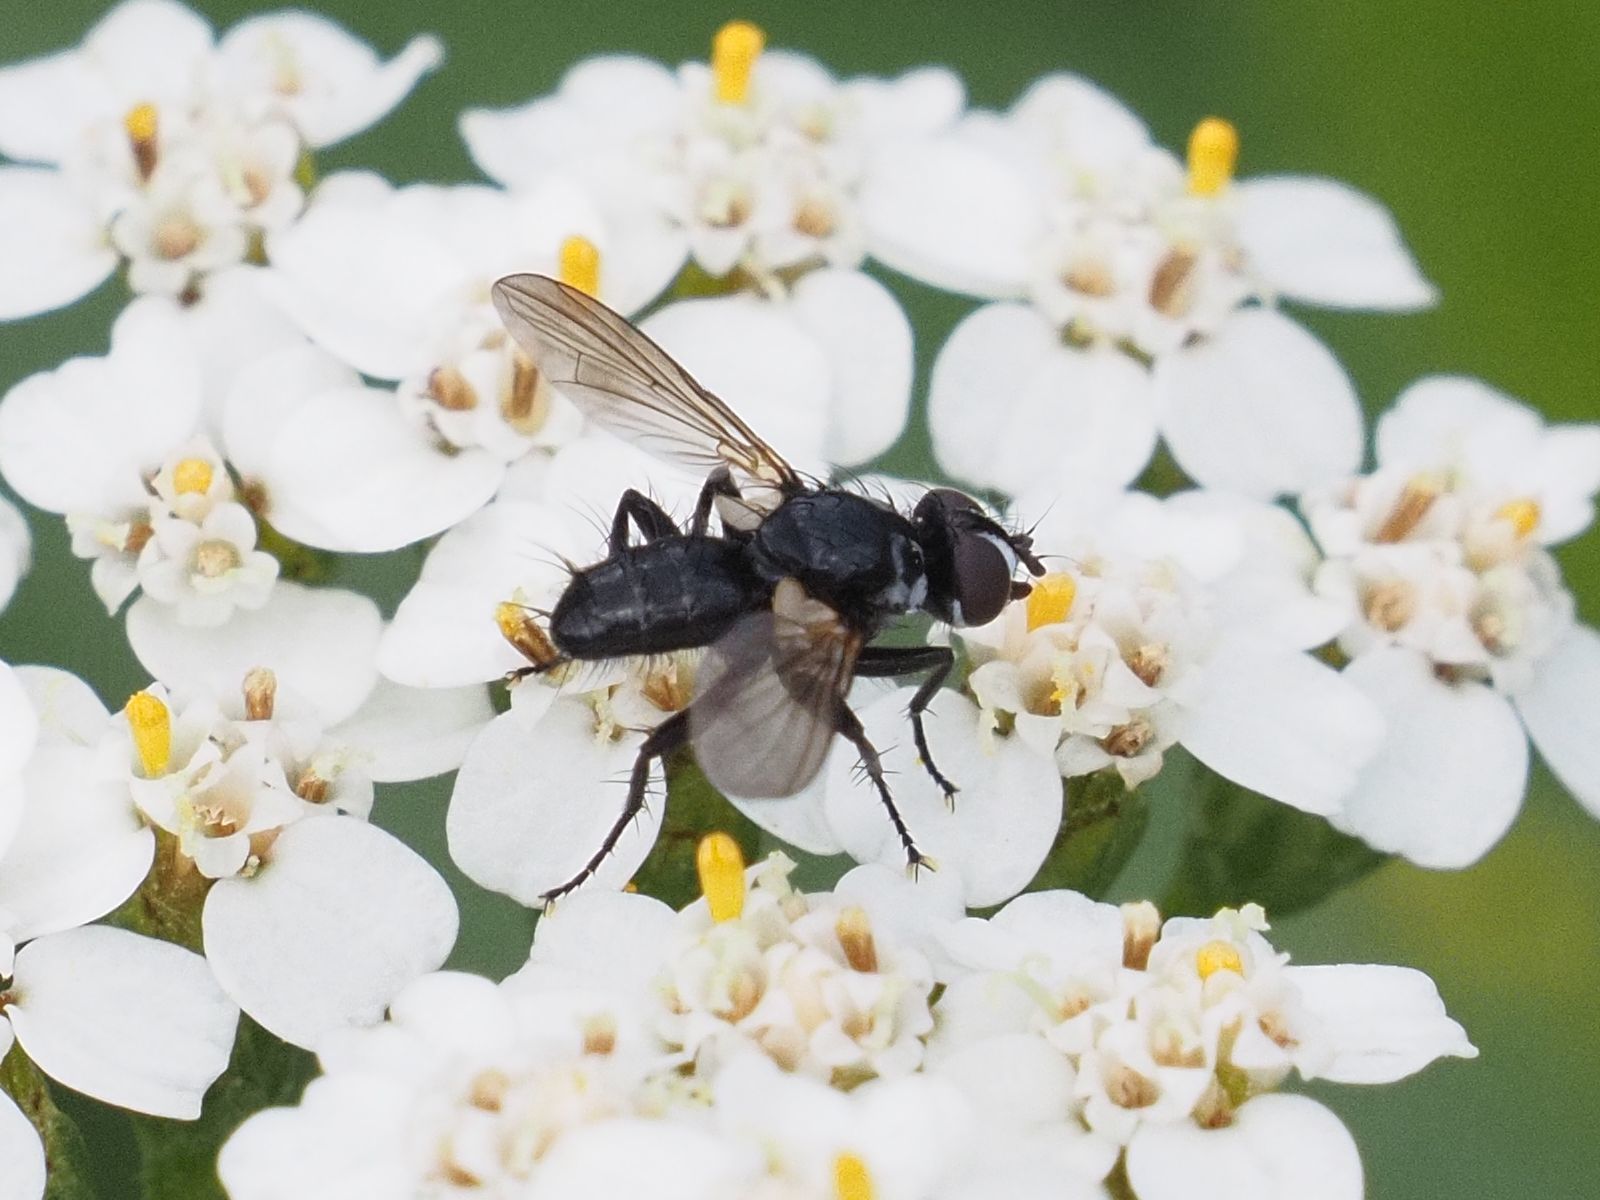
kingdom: Animalia
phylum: Arthropoda
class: Insecta
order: Diptera
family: Tachinidae
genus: Phania
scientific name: Phania funesta
